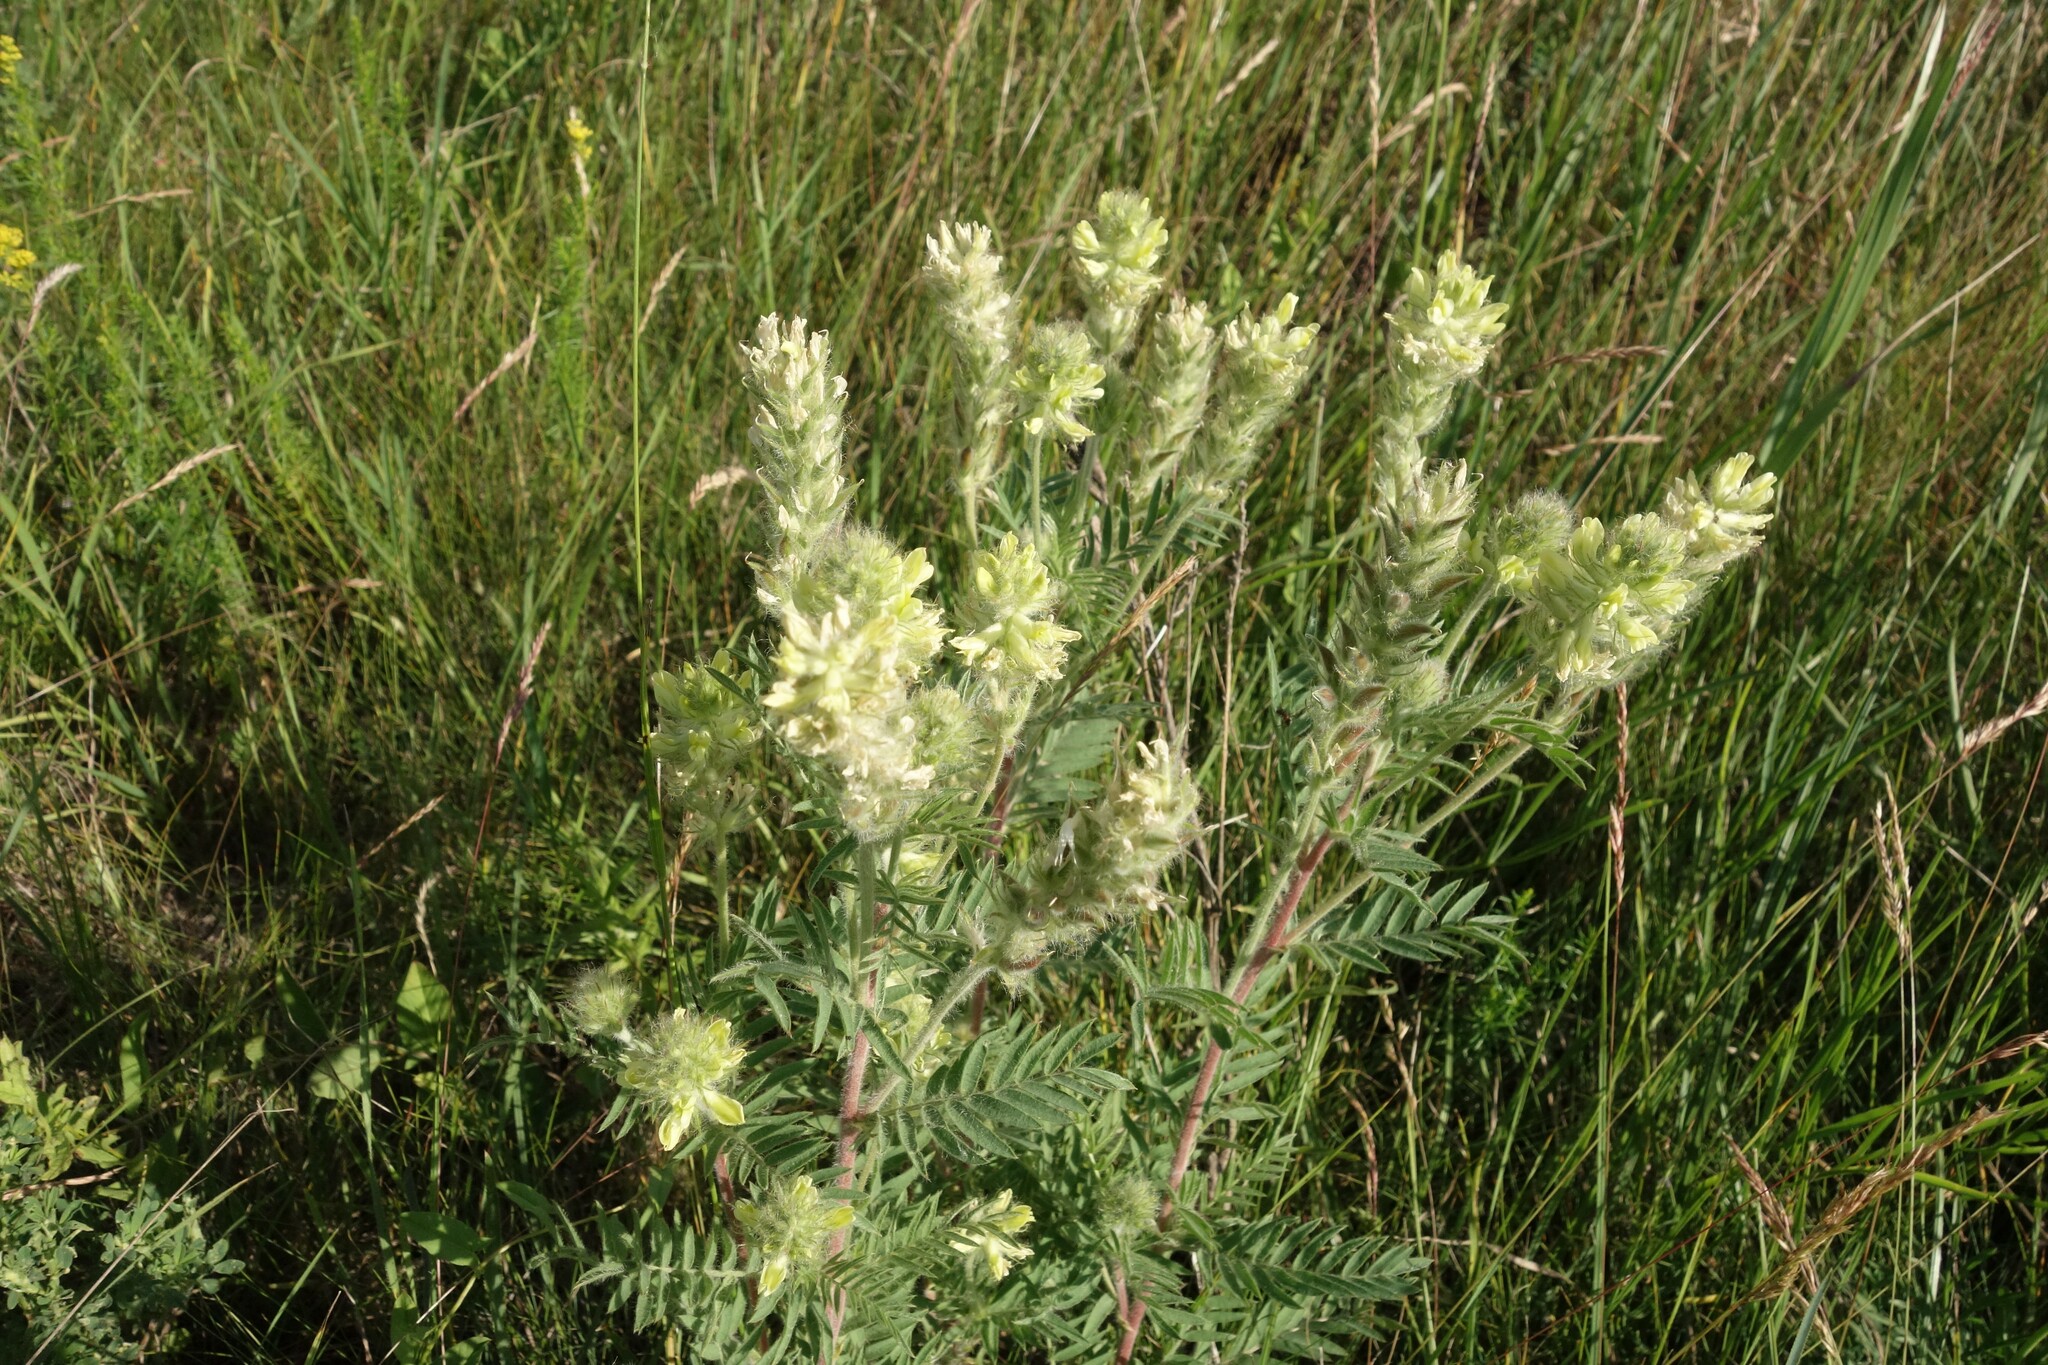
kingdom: Plantae
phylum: Tracheophyta
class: Magnoliopsida
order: Fabales
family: Fabaceae
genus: Oxytropis
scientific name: Oxytropis pilosa
